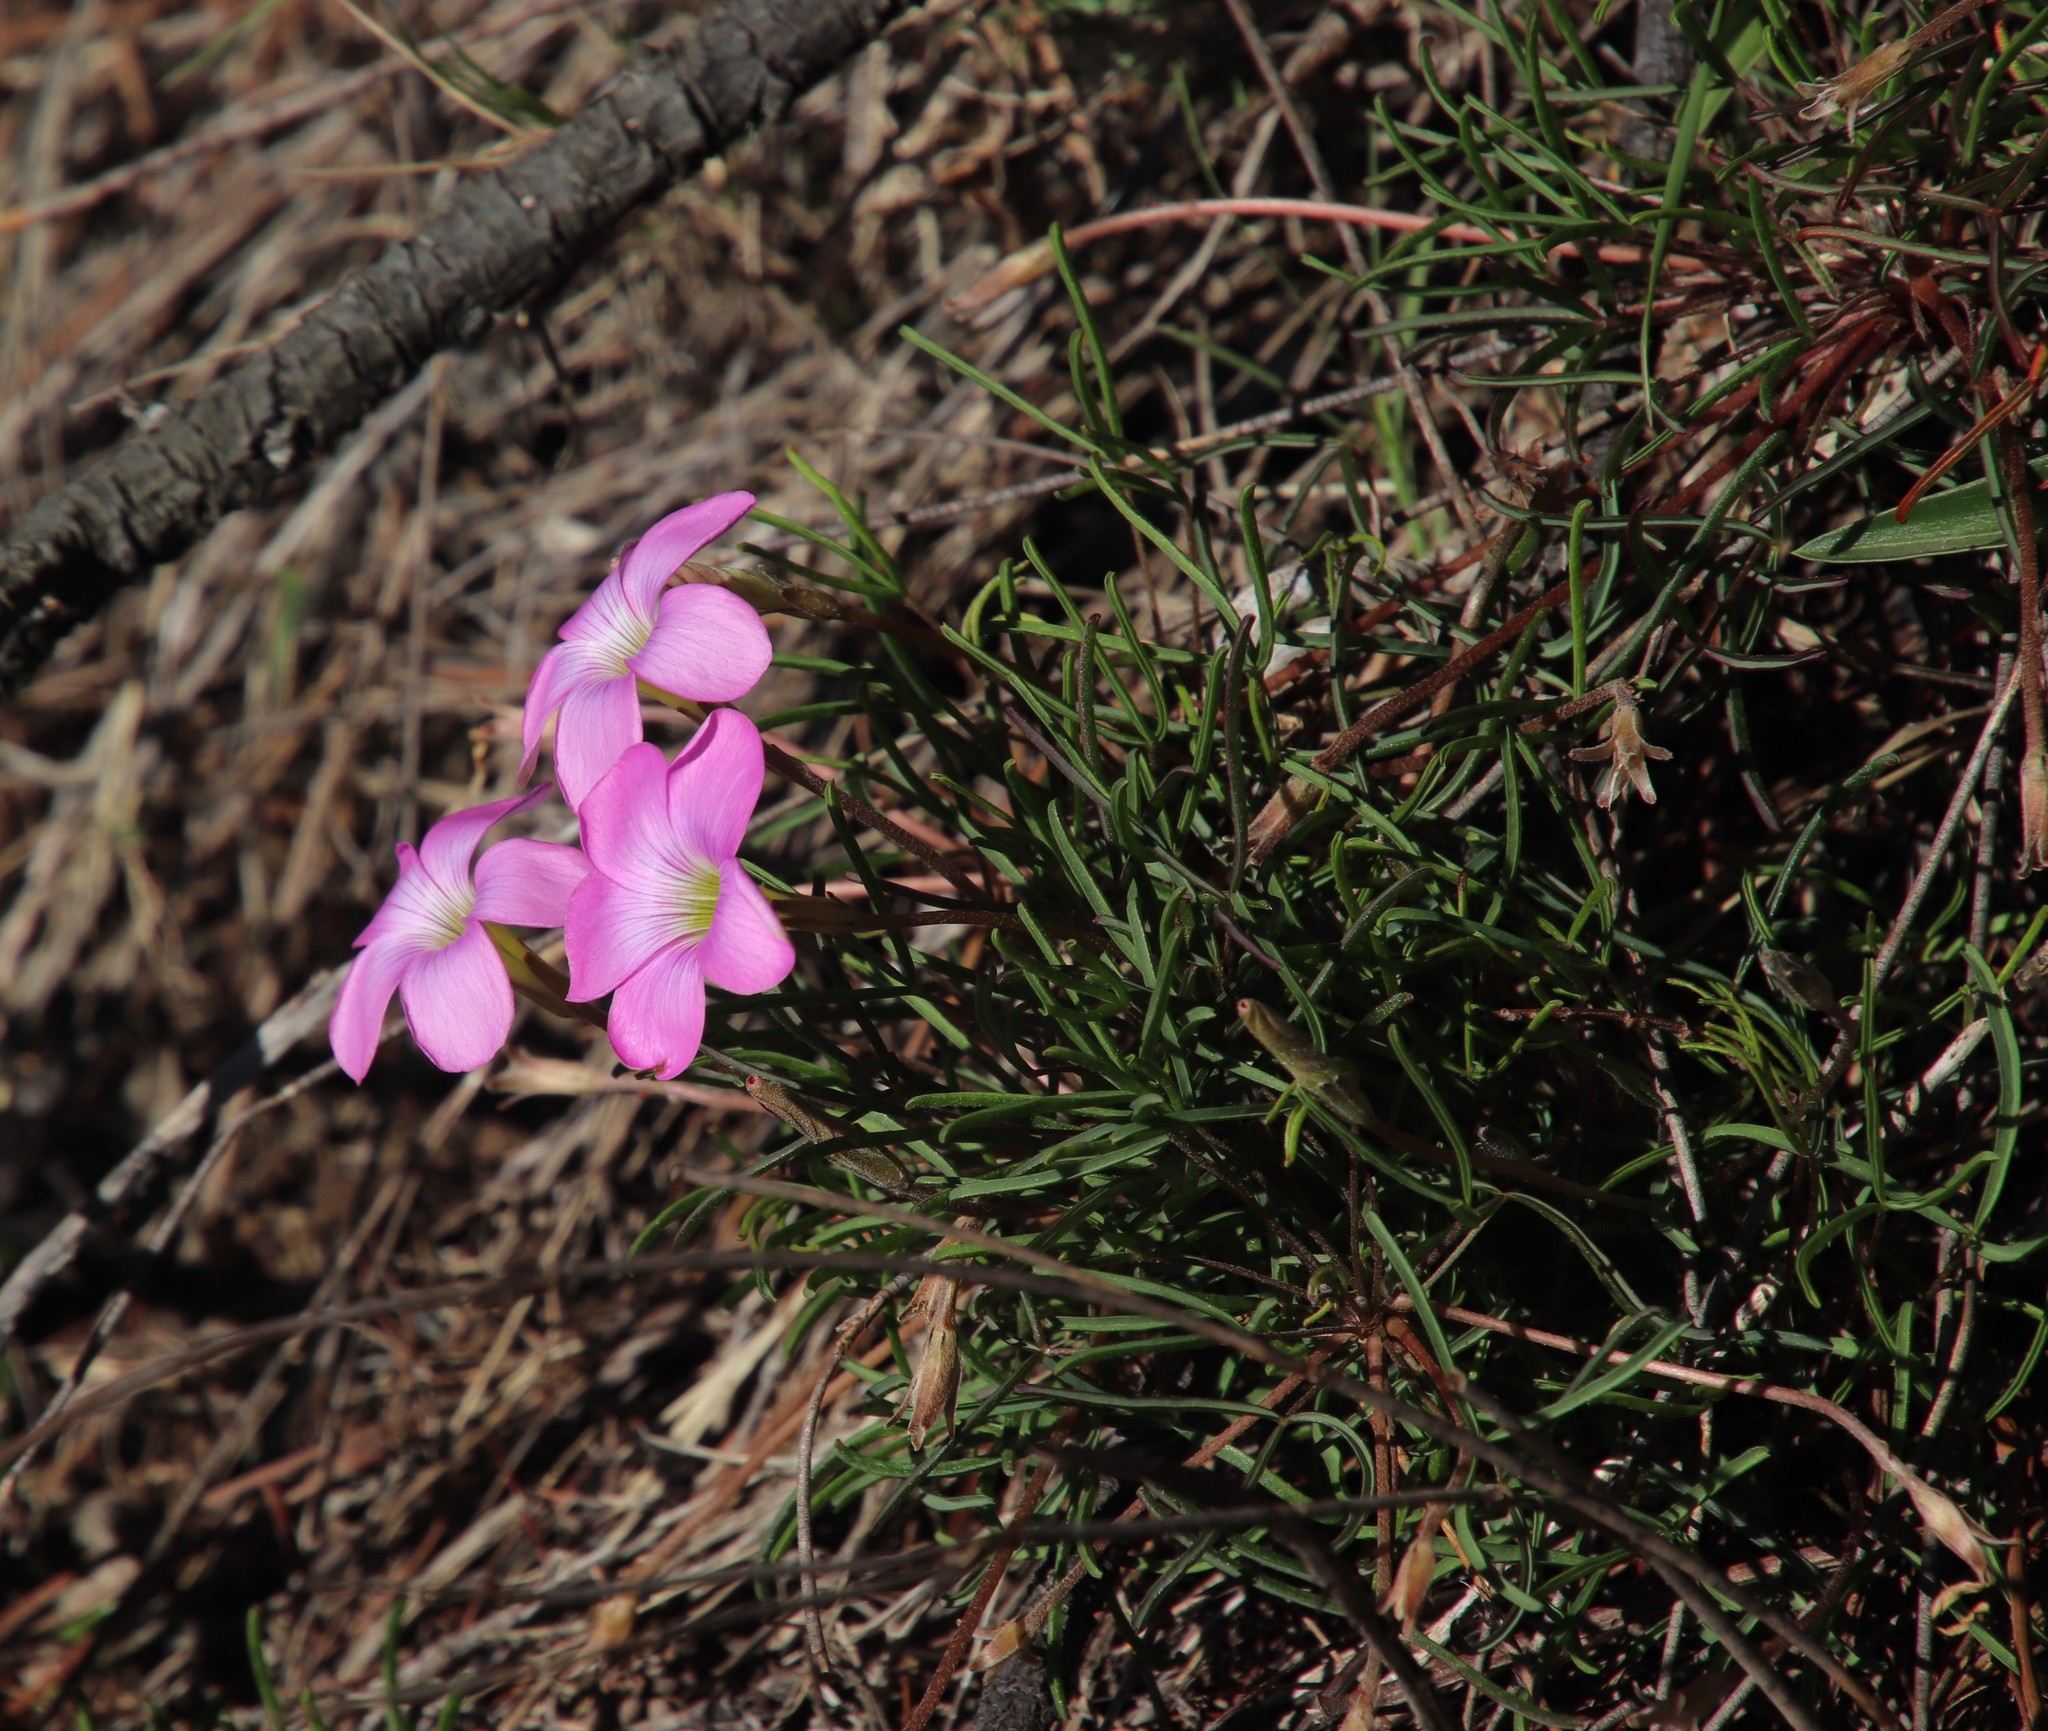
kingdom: Plantae
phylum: Tracheophyta
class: Magnoliopsida
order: Oxalidales
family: Oxalidaceae
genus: Oxalis
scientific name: Oxalis polyphylla
